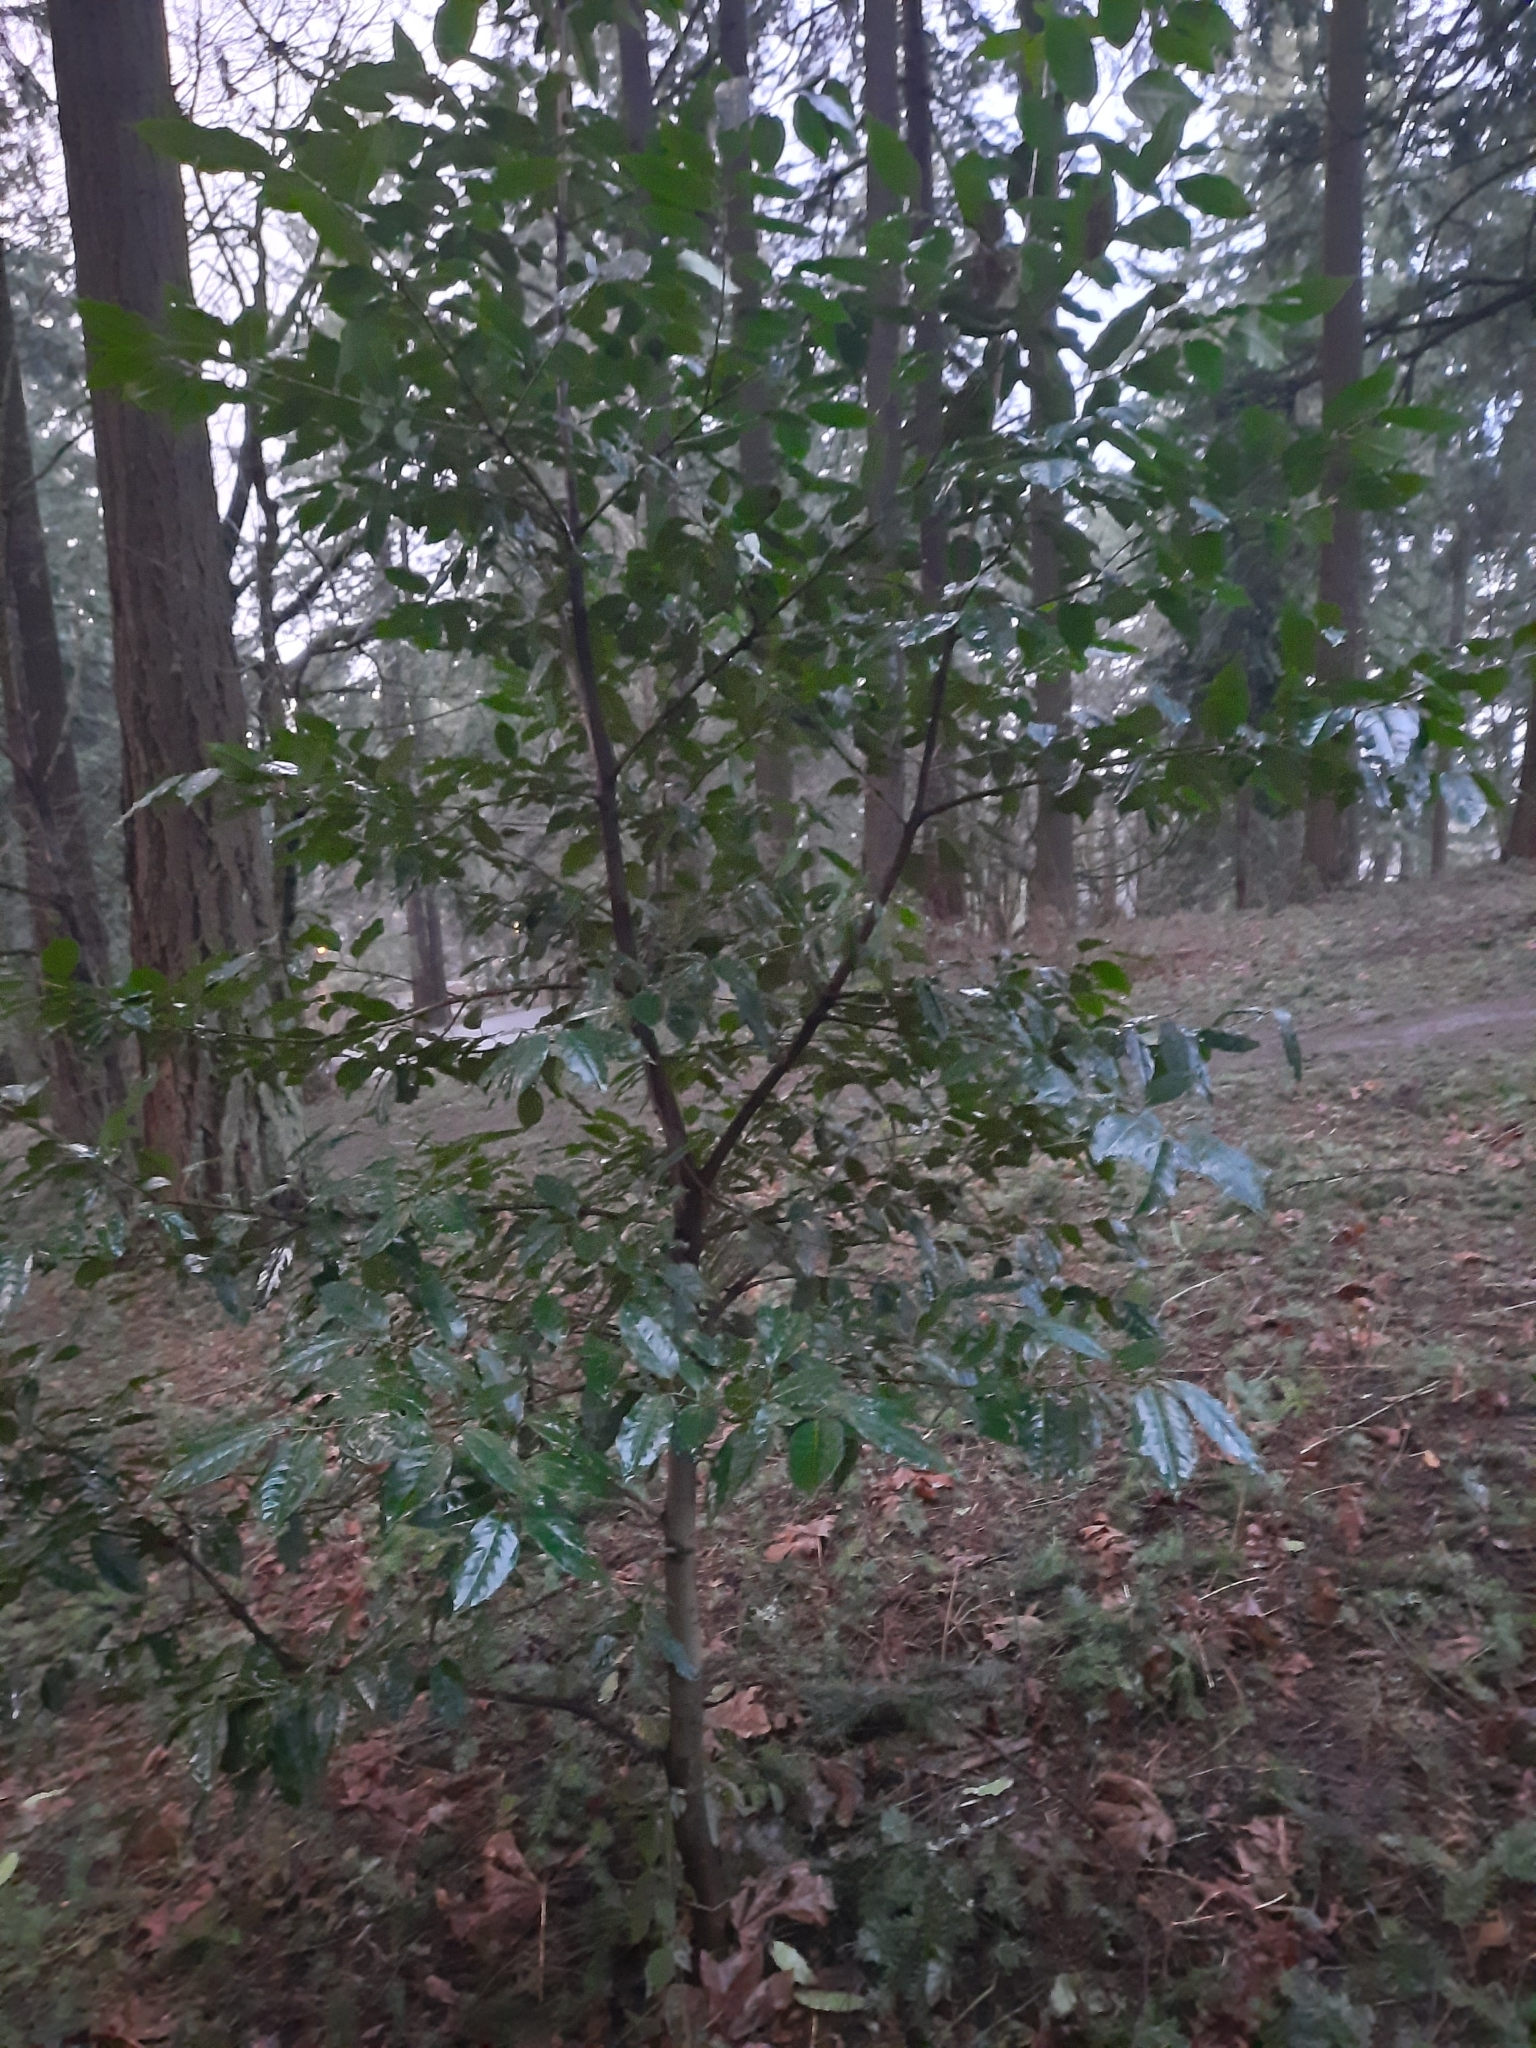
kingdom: Plantae
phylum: Tracheophyta
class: Magnoliopsida
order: Rosales
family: Rosaceae
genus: Prunus
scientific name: Prunus lusitanica
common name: Portugal laurel
